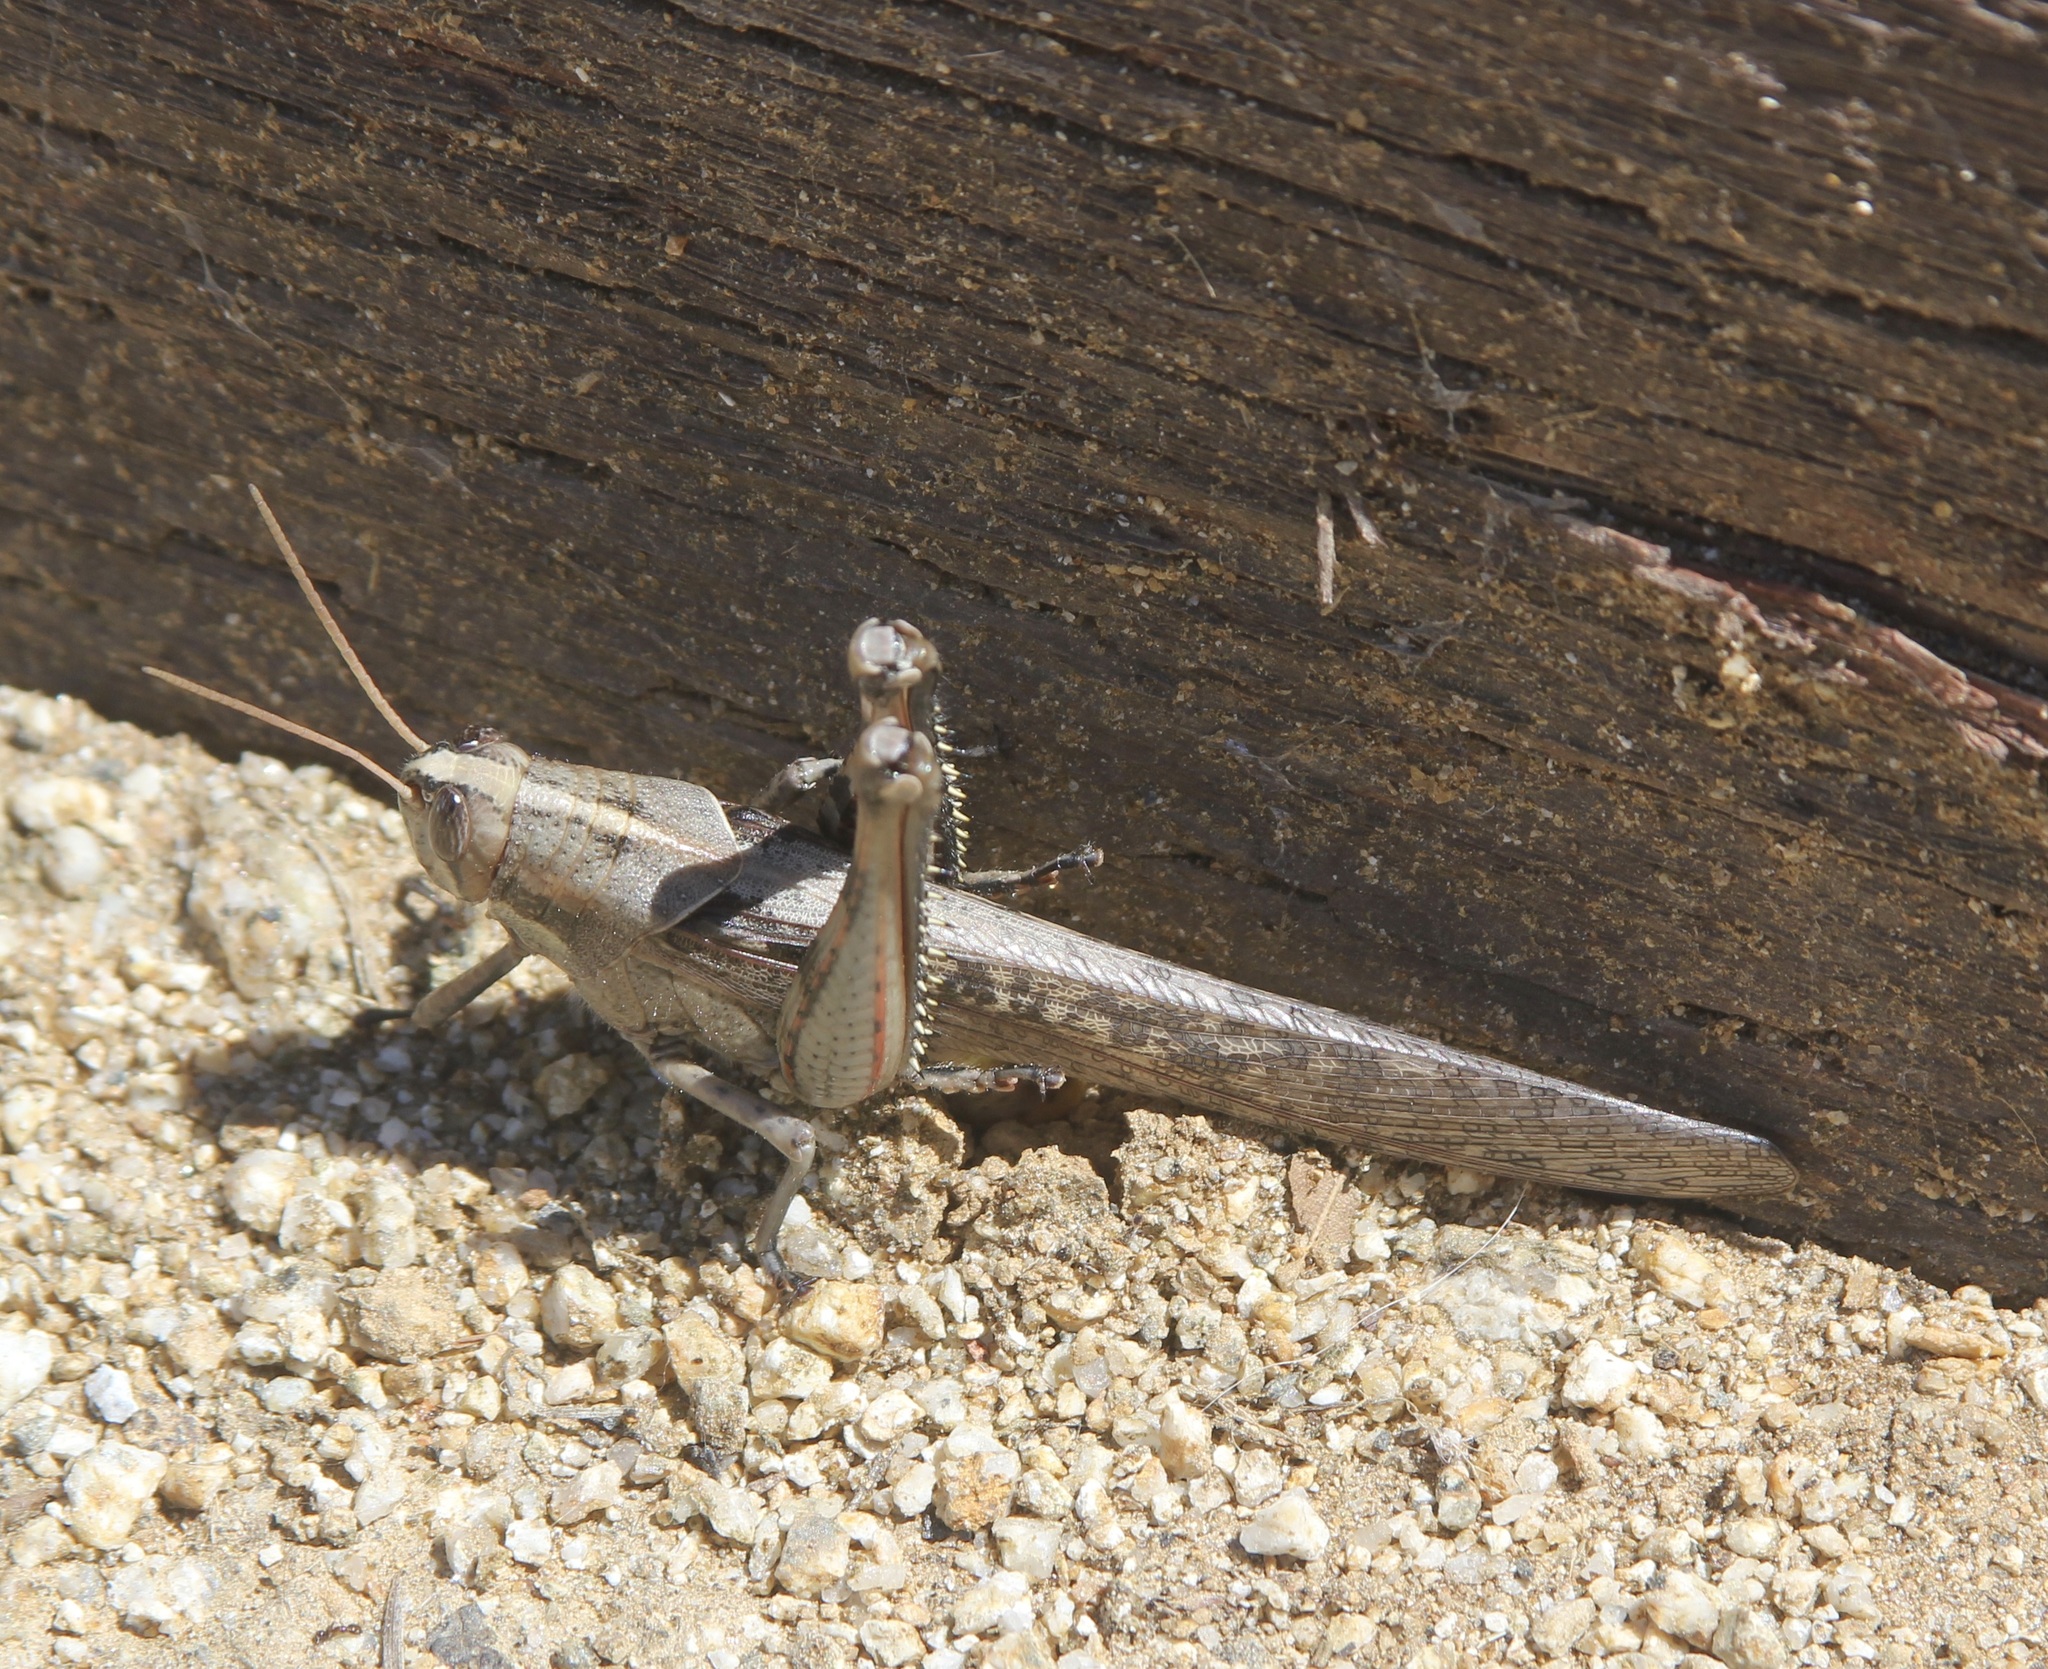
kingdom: Animalia
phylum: Arthropoda
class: Insecta
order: Orthoptera
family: Acrididae
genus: Schistocerca
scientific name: Schistocerca nitens
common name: Vagrant grasshopper
